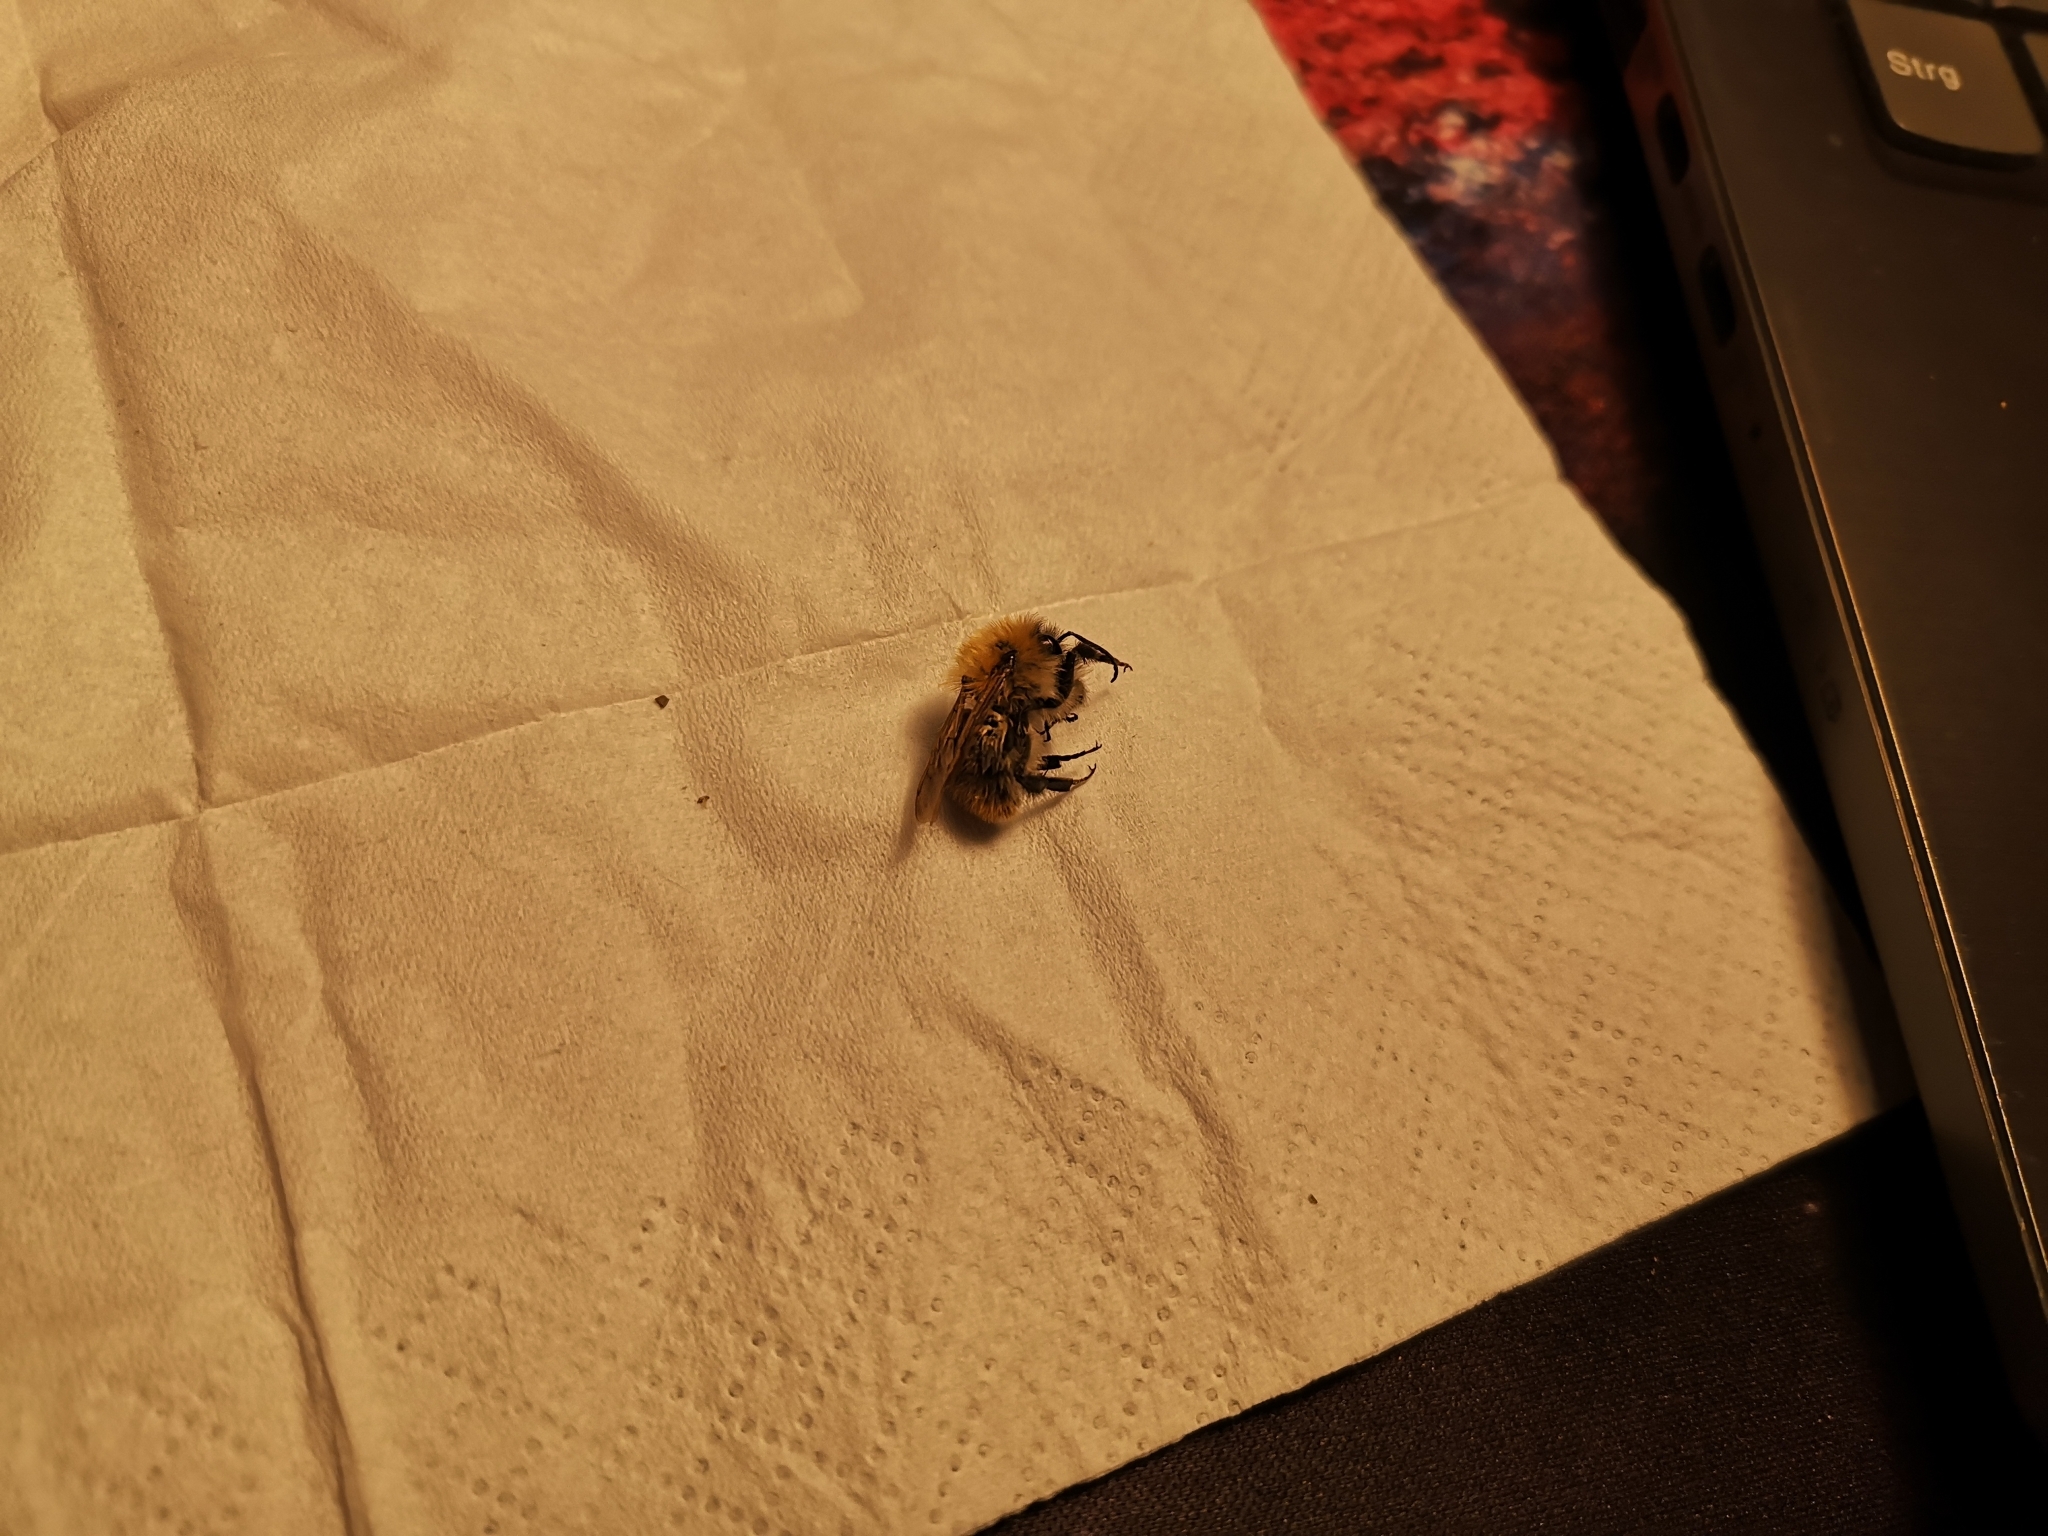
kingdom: Animalia
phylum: Arthropoda
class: Insecta
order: Hymenoptera
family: Apidae
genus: Bombus
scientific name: Bombus pascuorum
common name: Common carder bee
